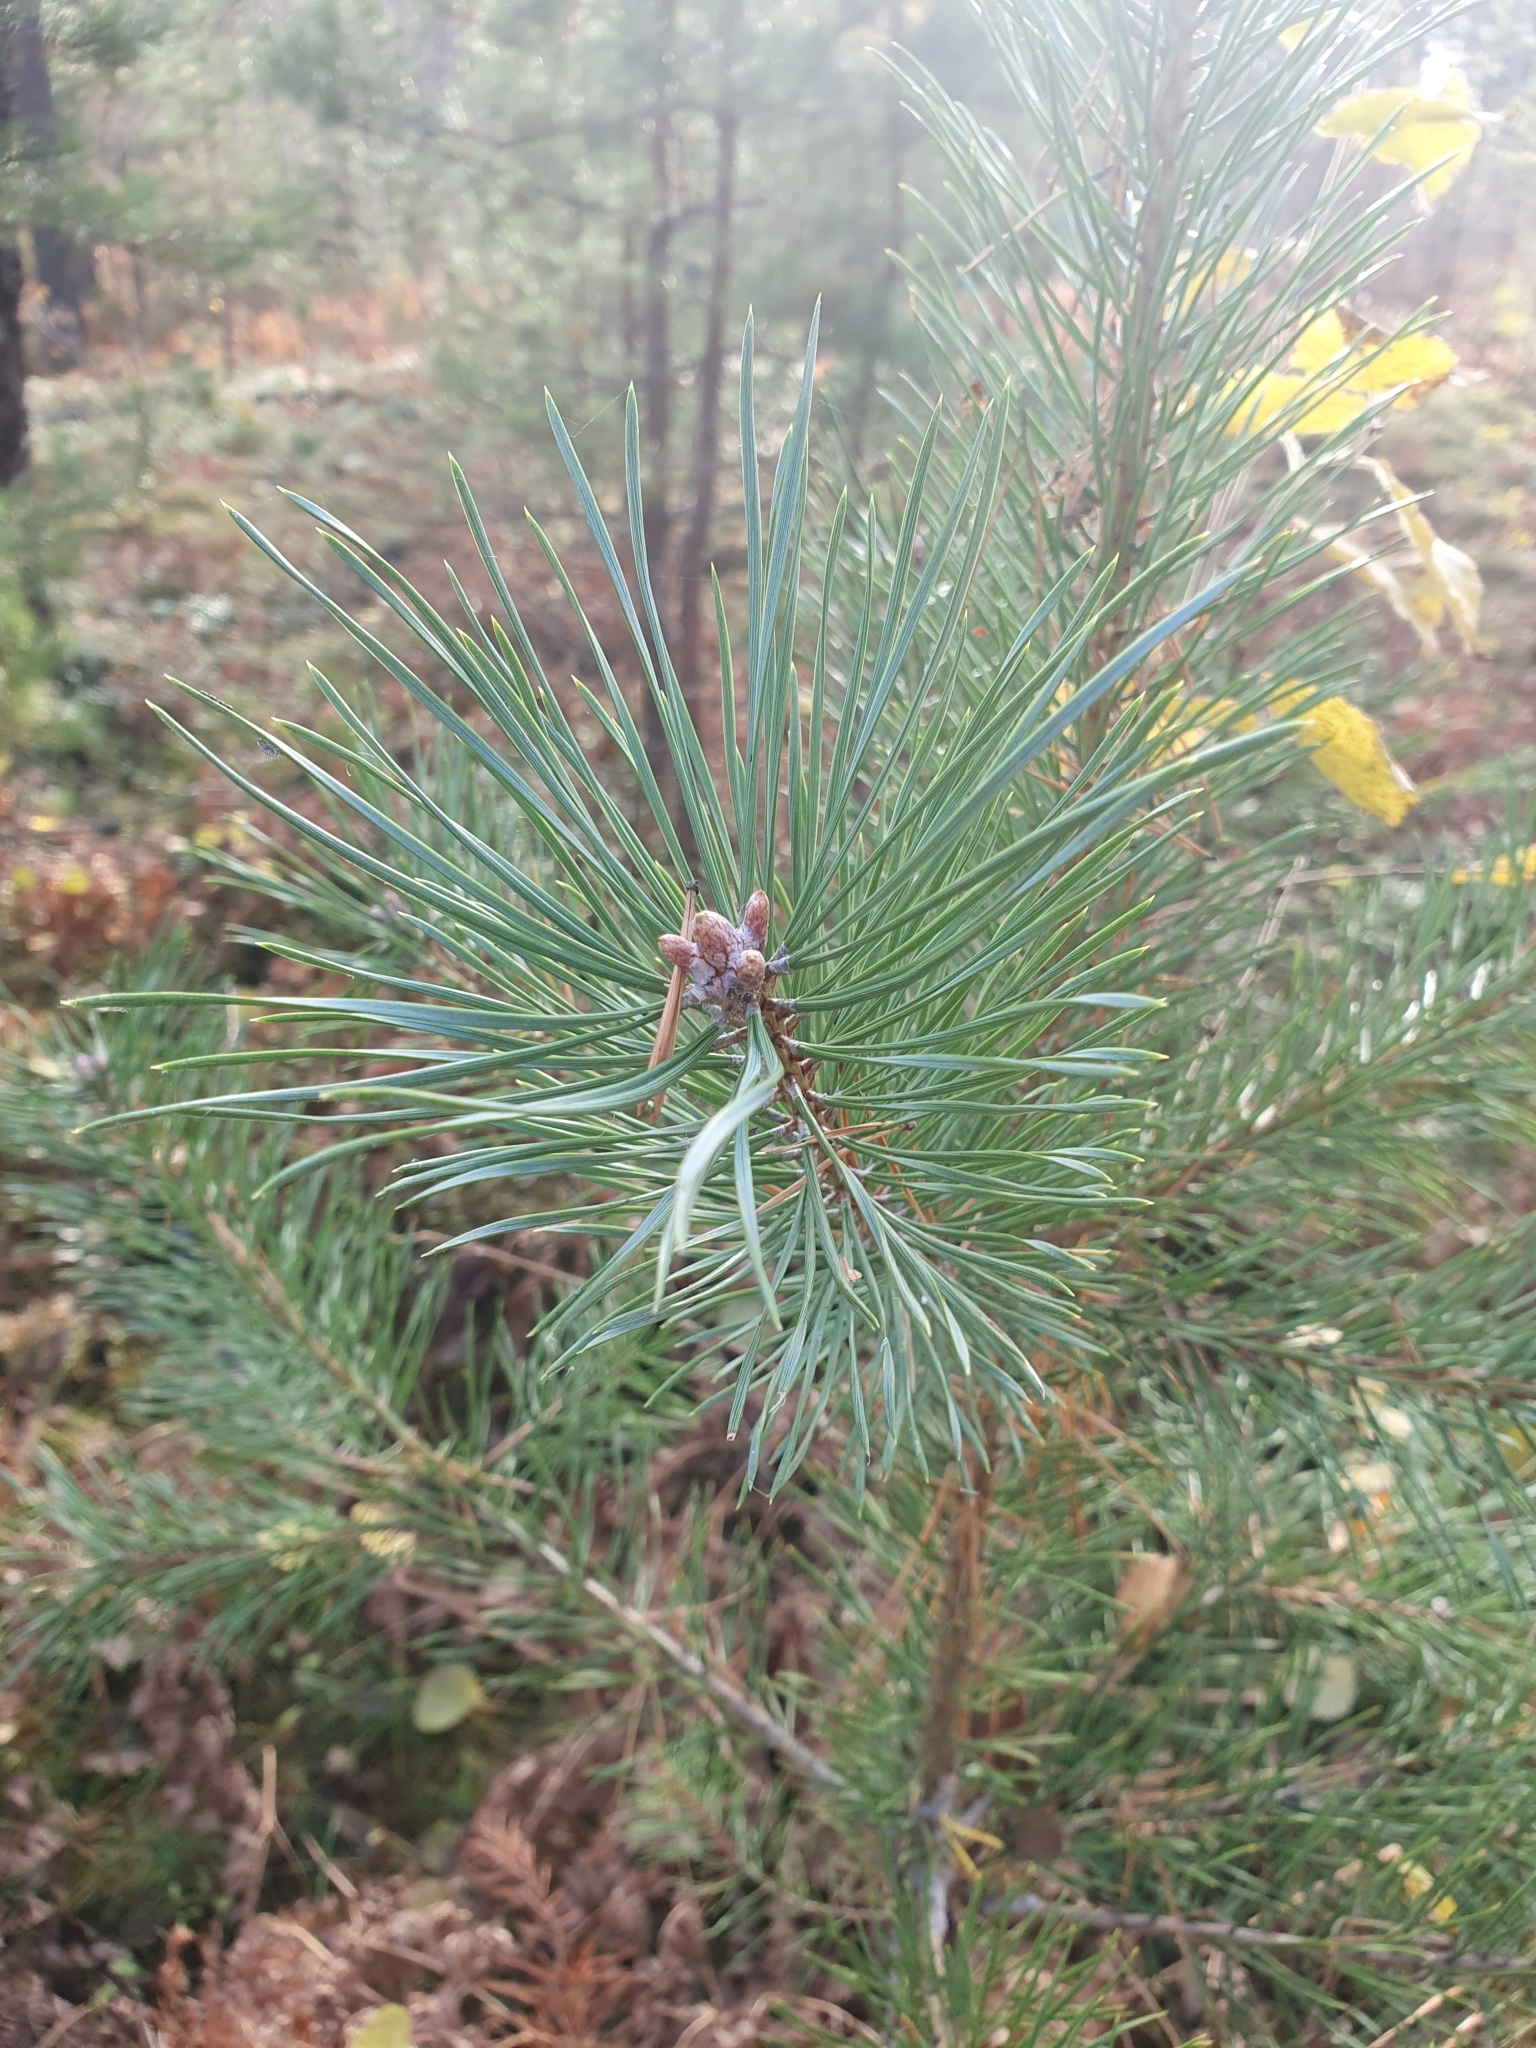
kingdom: Plantae
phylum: Tracheophyta
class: Pinopsida
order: Pinales
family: Pinaceae
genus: Pinus
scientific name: Pinus sylvestris
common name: Scots pine
